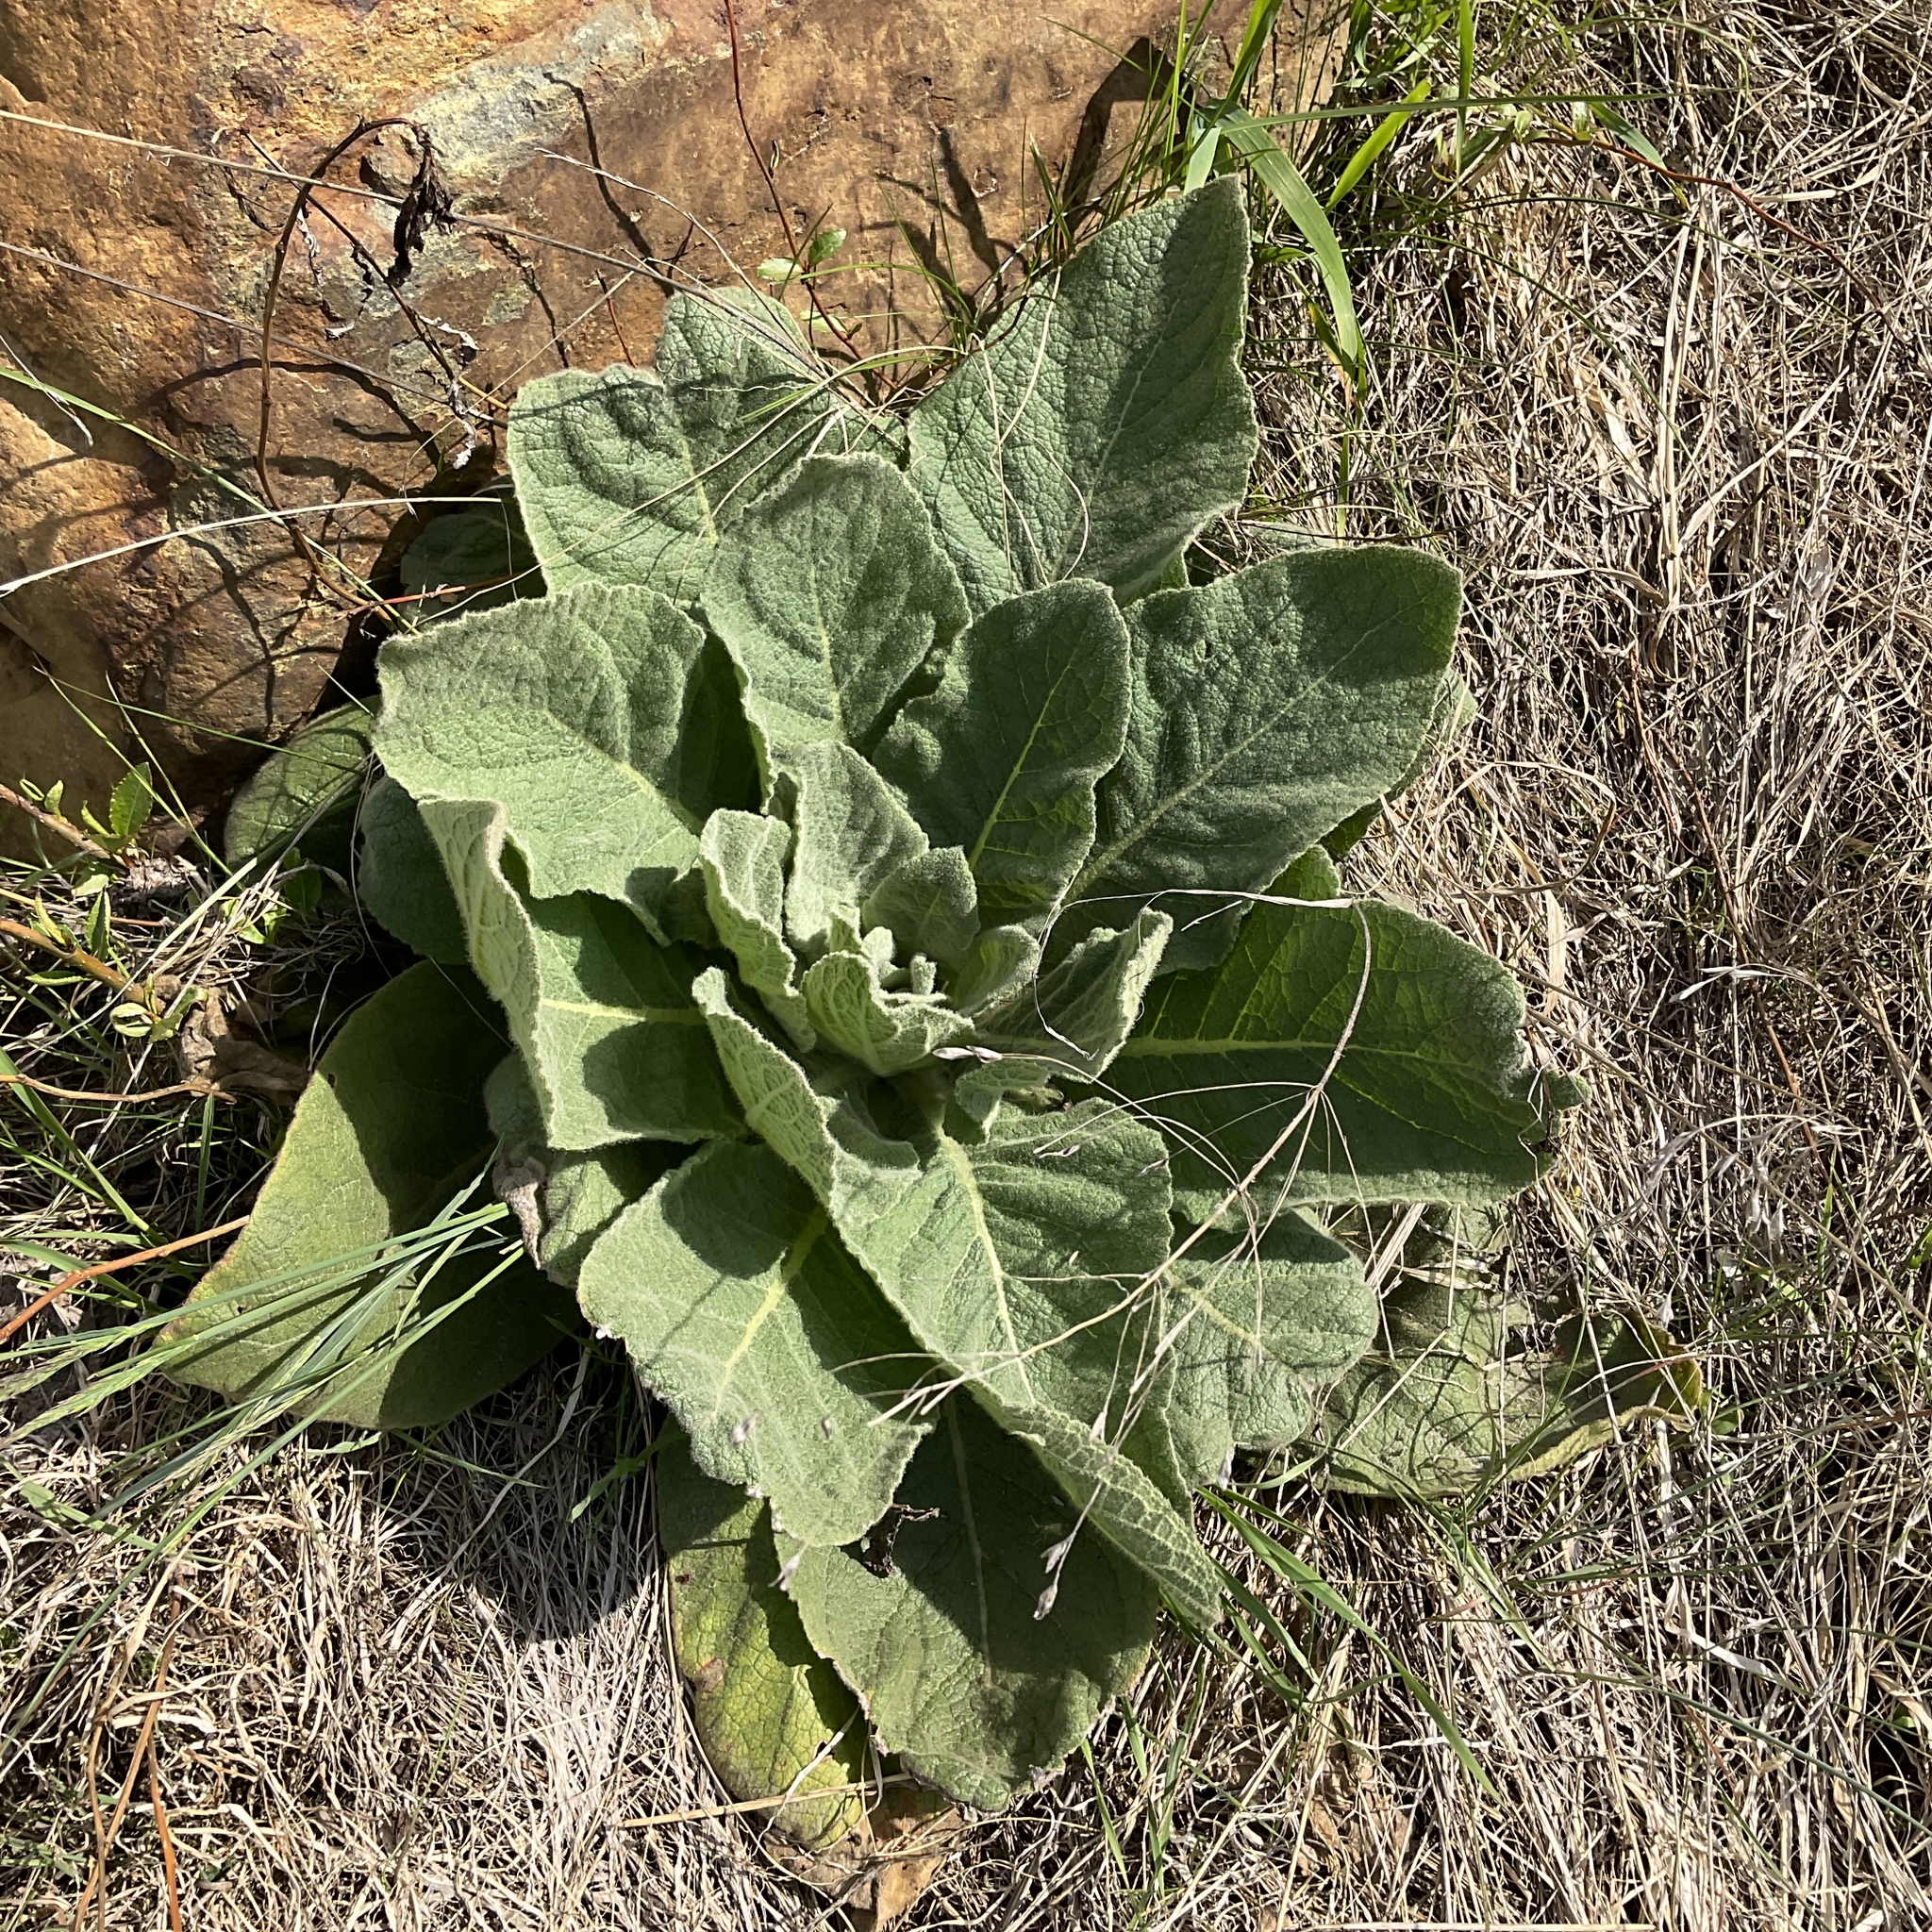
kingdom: Plantae
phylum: Tracheophyta
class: Magnoliopsida
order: Lamiales
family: Scrophulariaceae
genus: Verbascum
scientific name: Verbascum thapsus
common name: Common mullein
